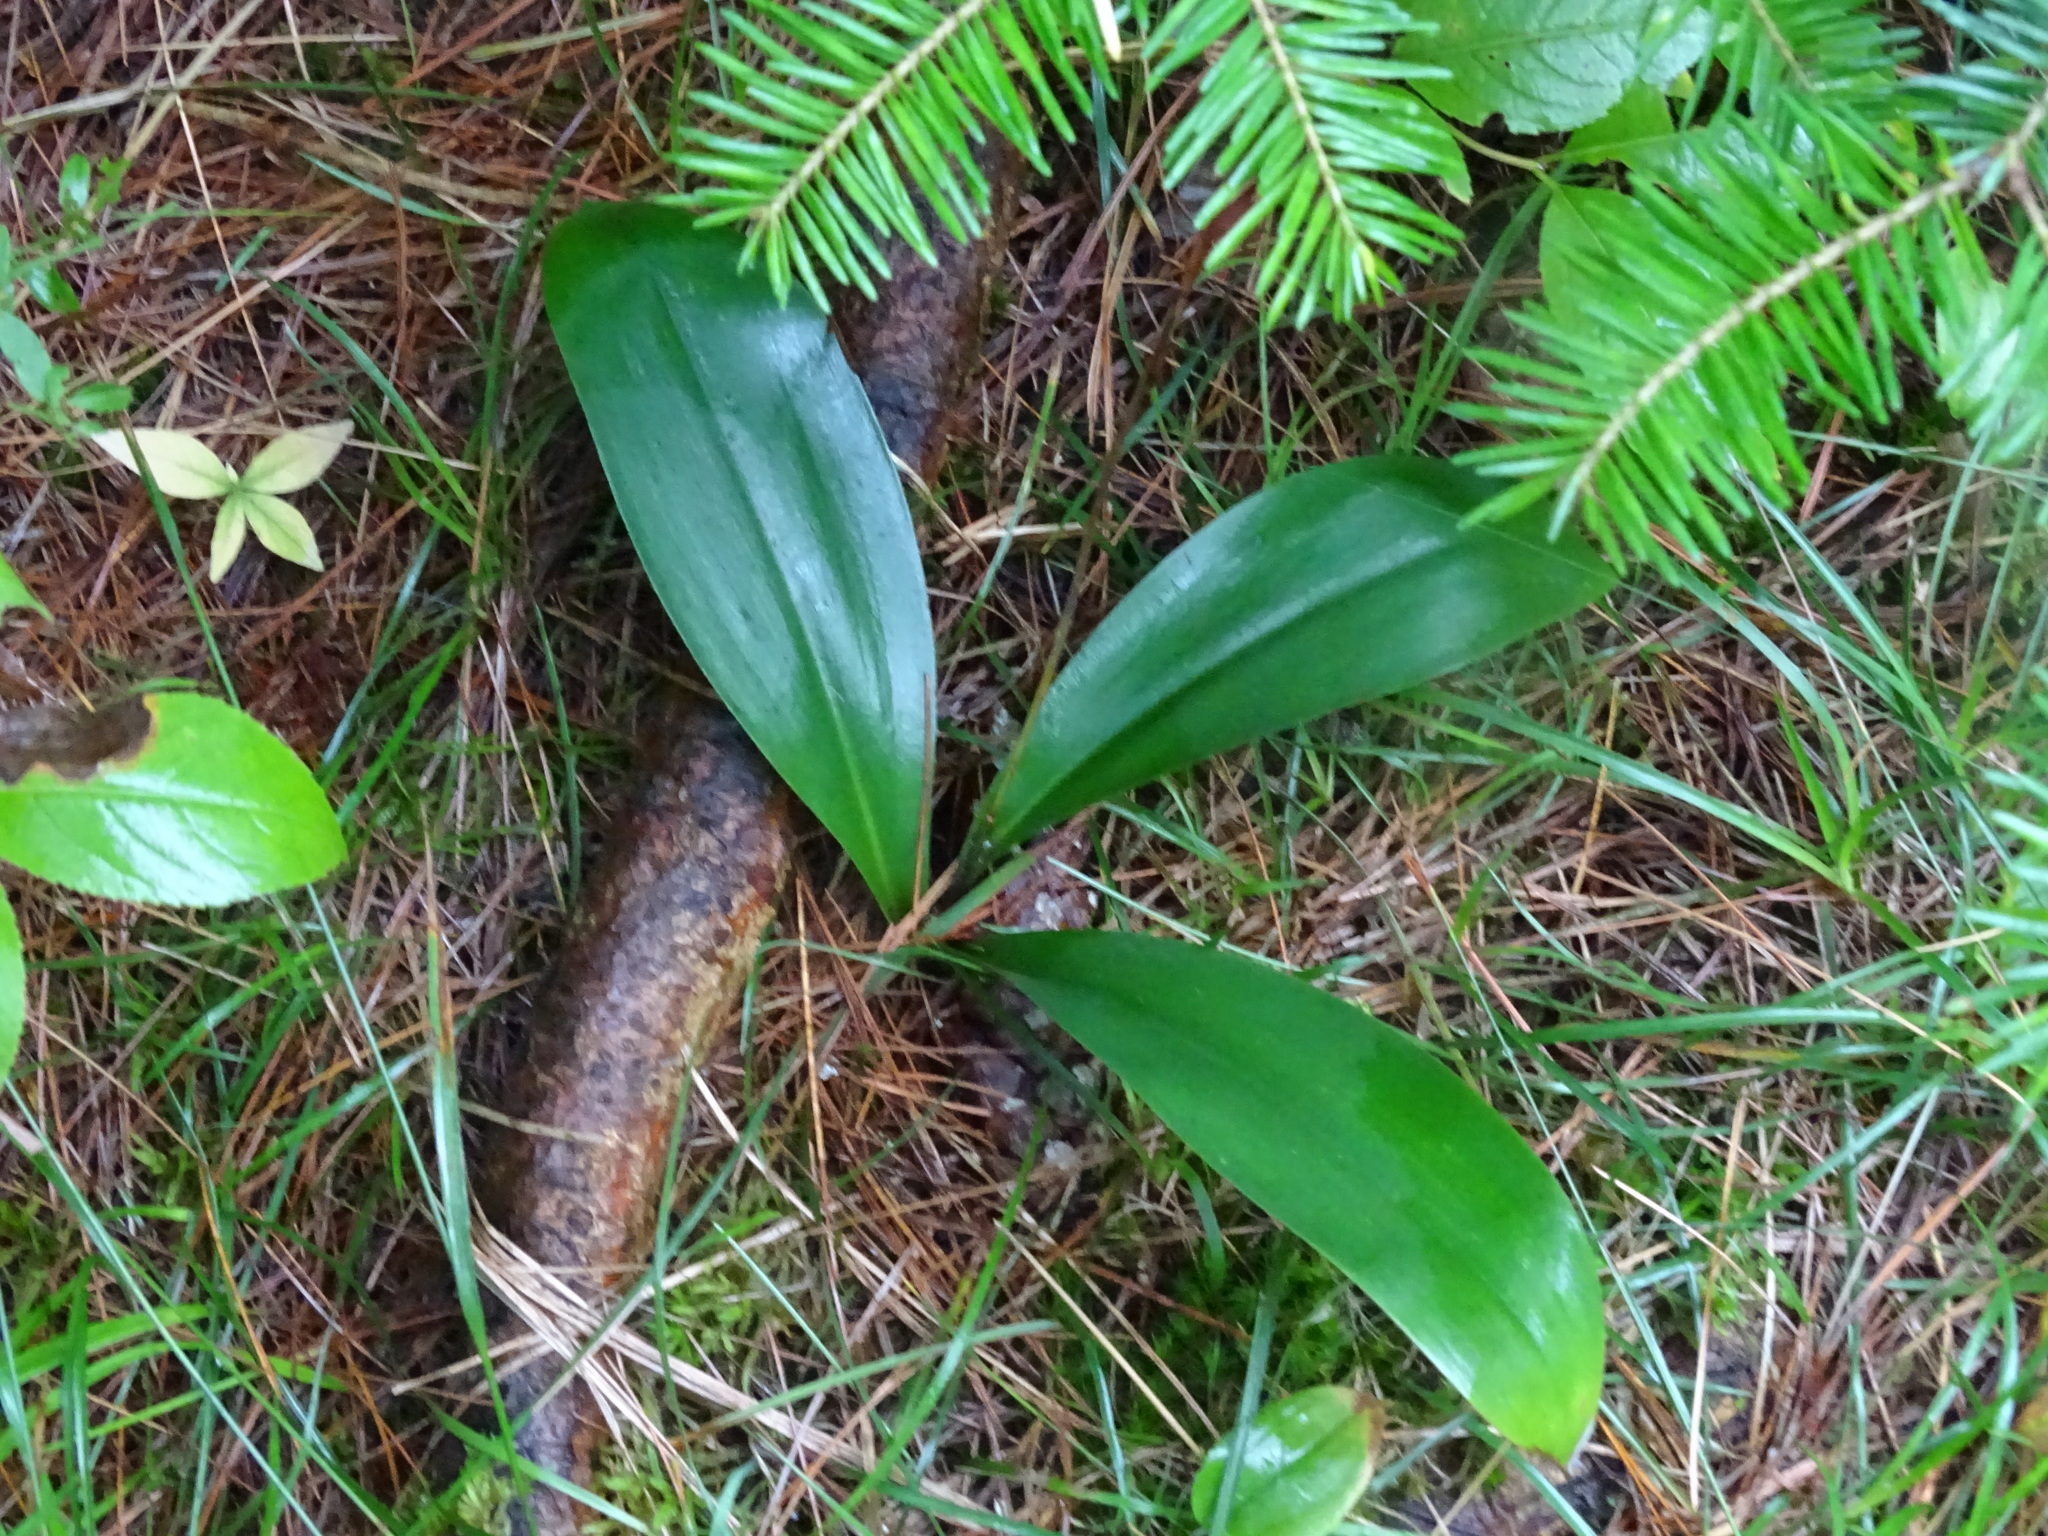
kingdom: Plantae
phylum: Tracheophyta
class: Liliopsida
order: Liliales
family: Liliaceae
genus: Clintonia
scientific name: Clintonia borealis
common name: Yellow clintonia
